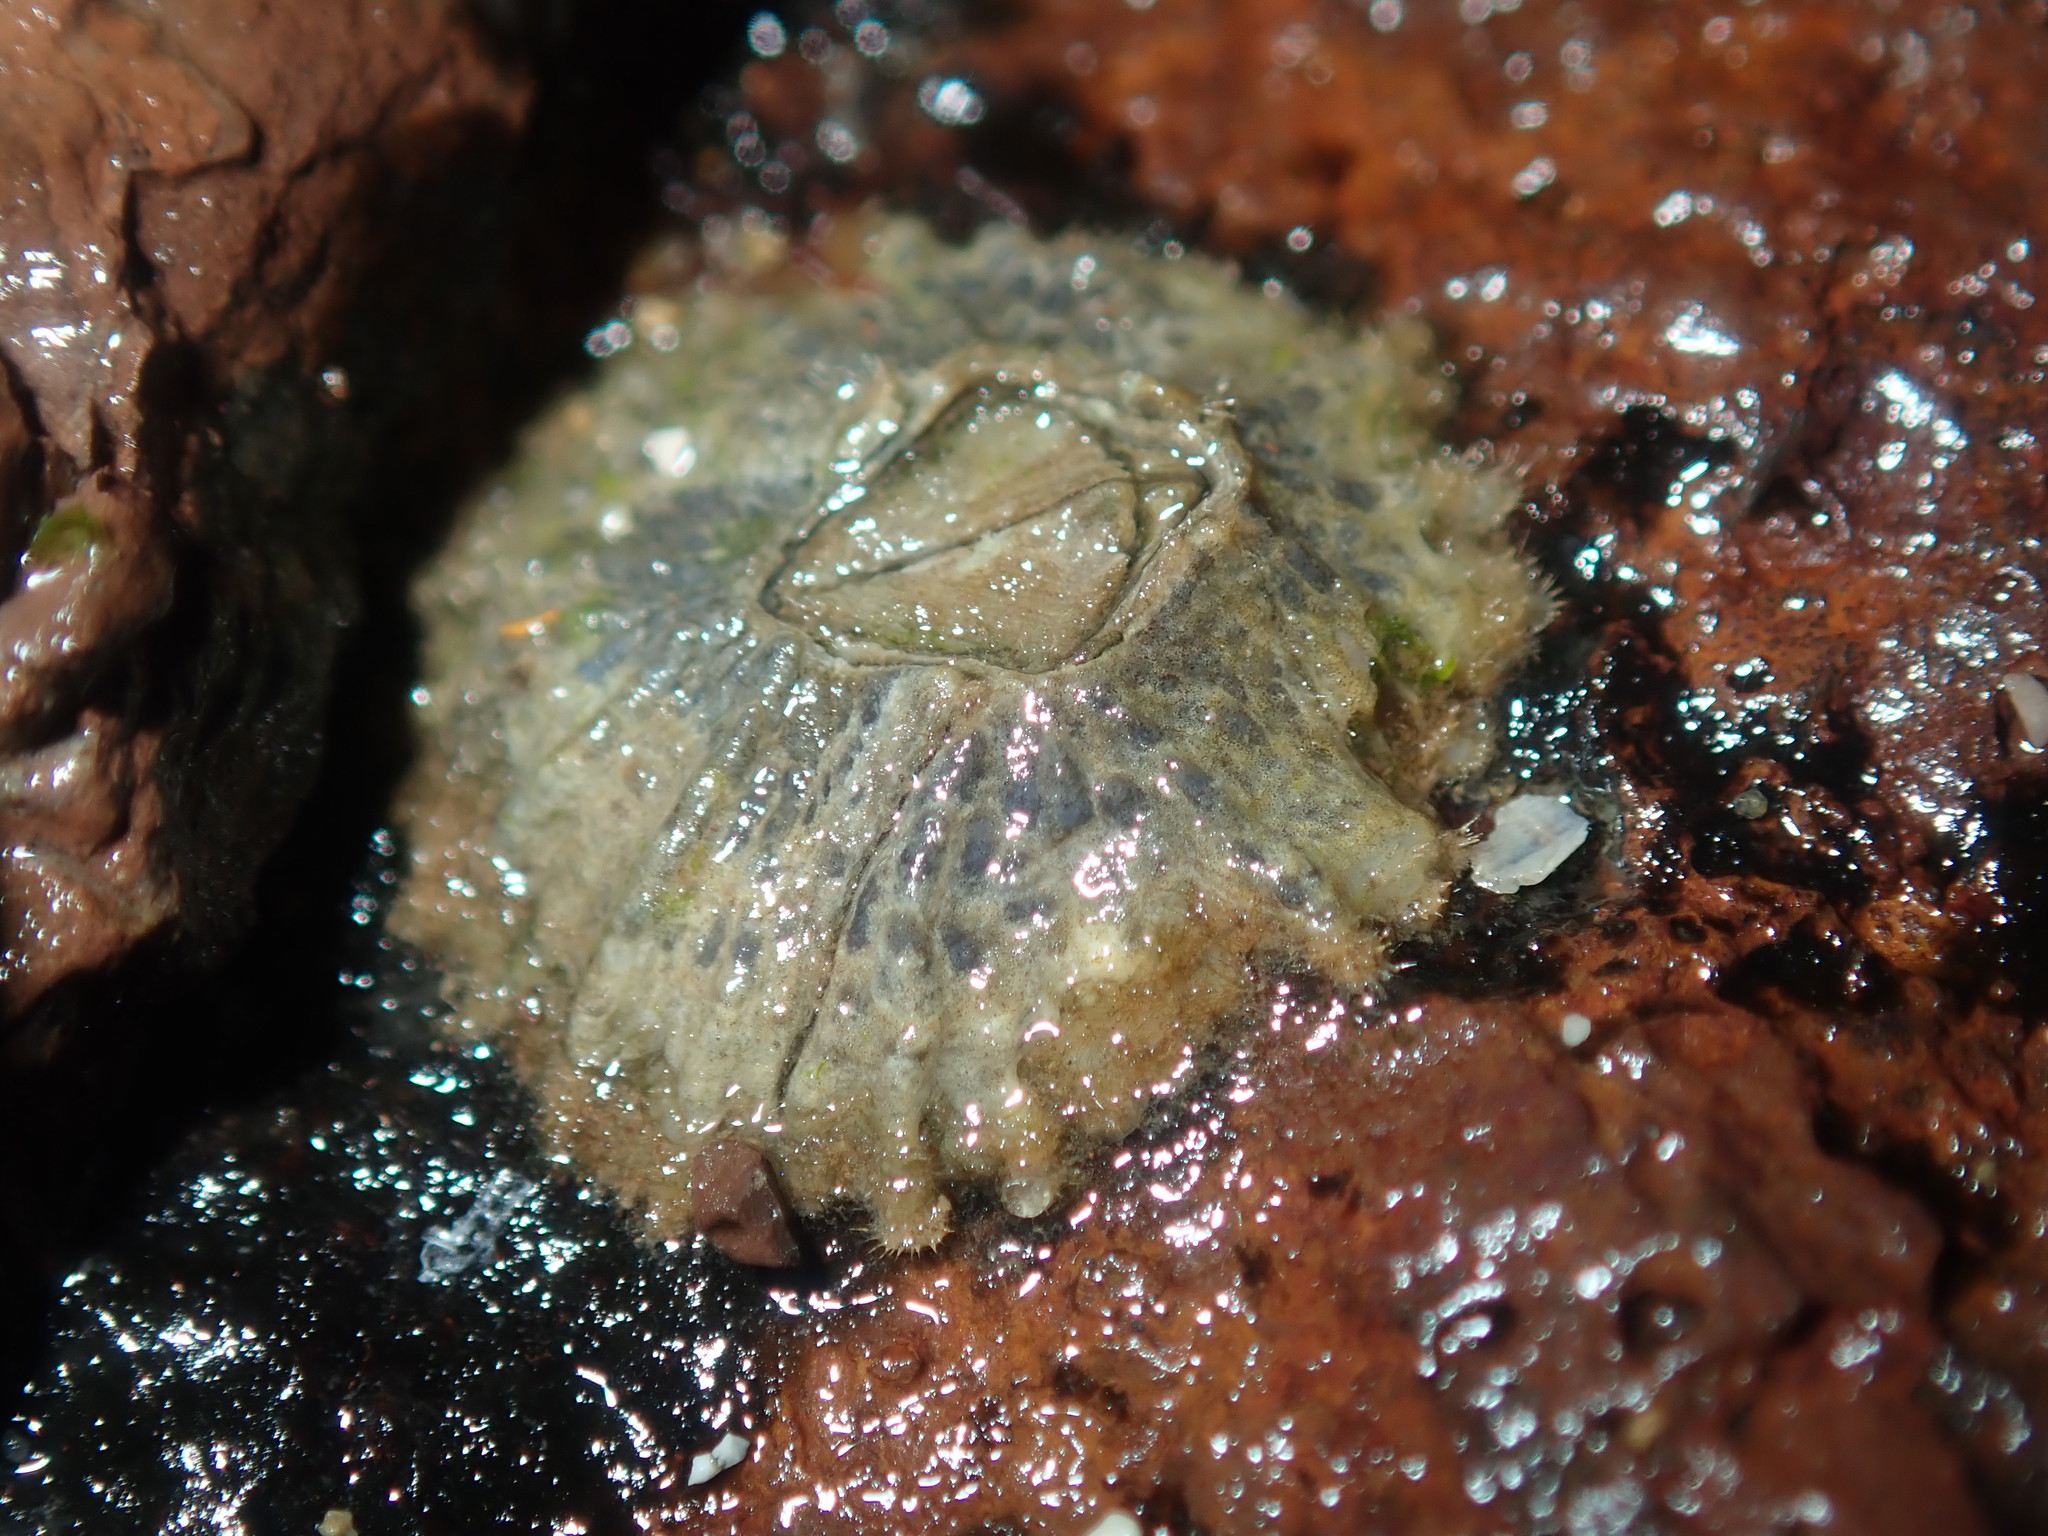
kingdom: Animalia
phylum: Arthropoda
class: Maxillopoda
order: Sessilia
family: Tetraclitidae
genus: Tetraclitella
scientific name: Tetraclitella purpurascens
